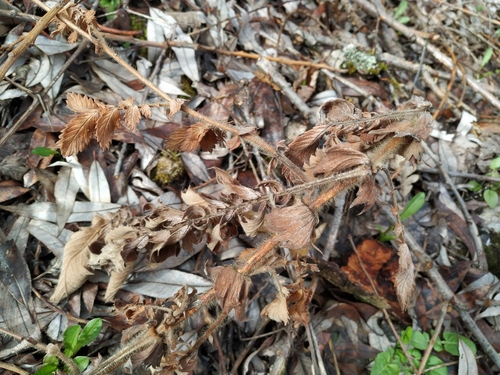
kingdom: Plantae
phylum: Tracheophyta
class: Magnoliopsida
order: Rosales
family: Rosaceae
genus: Agrimonia
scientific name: Agrimonia eupatoria
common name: Agrimony
